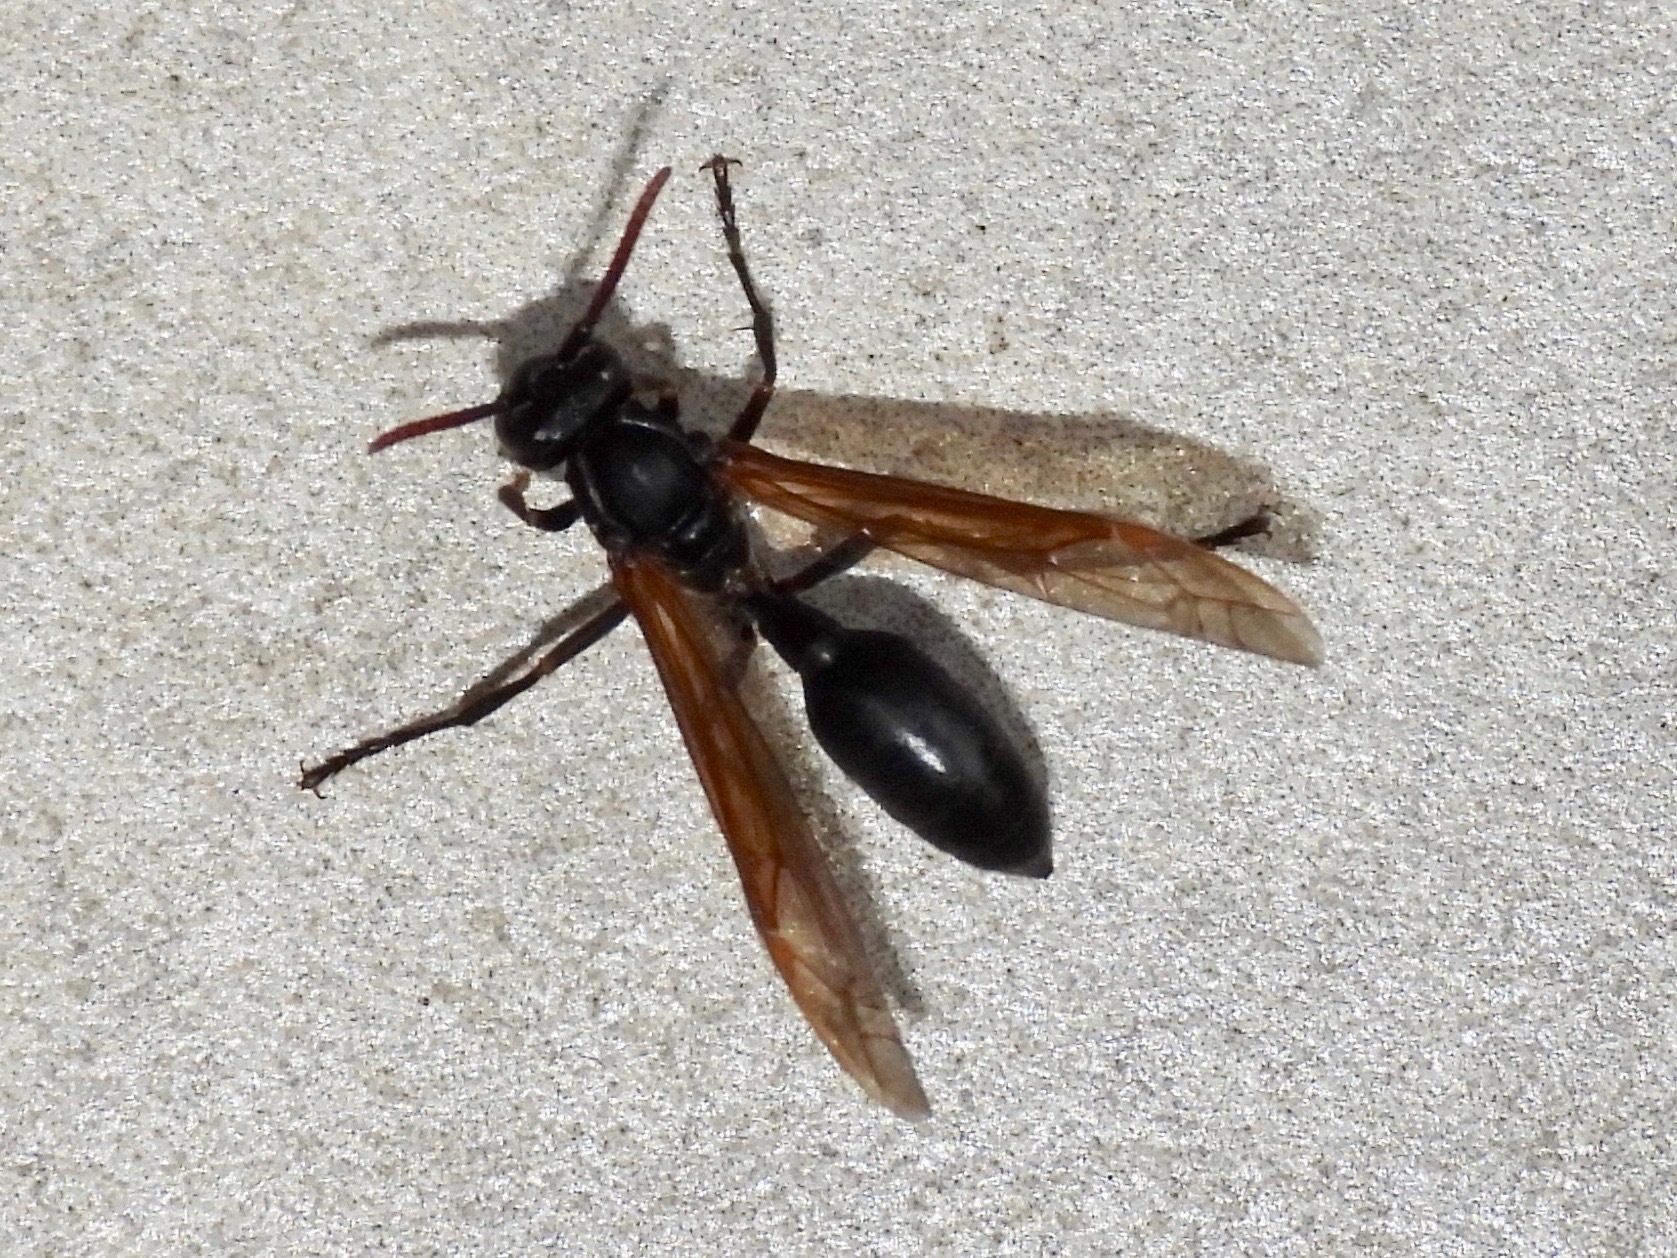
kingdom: Animalia
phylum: Arthropoda
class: Insecta
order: Hymenoptera
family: Vespidae
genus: Agelaia
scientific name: Agelaia panamensis
